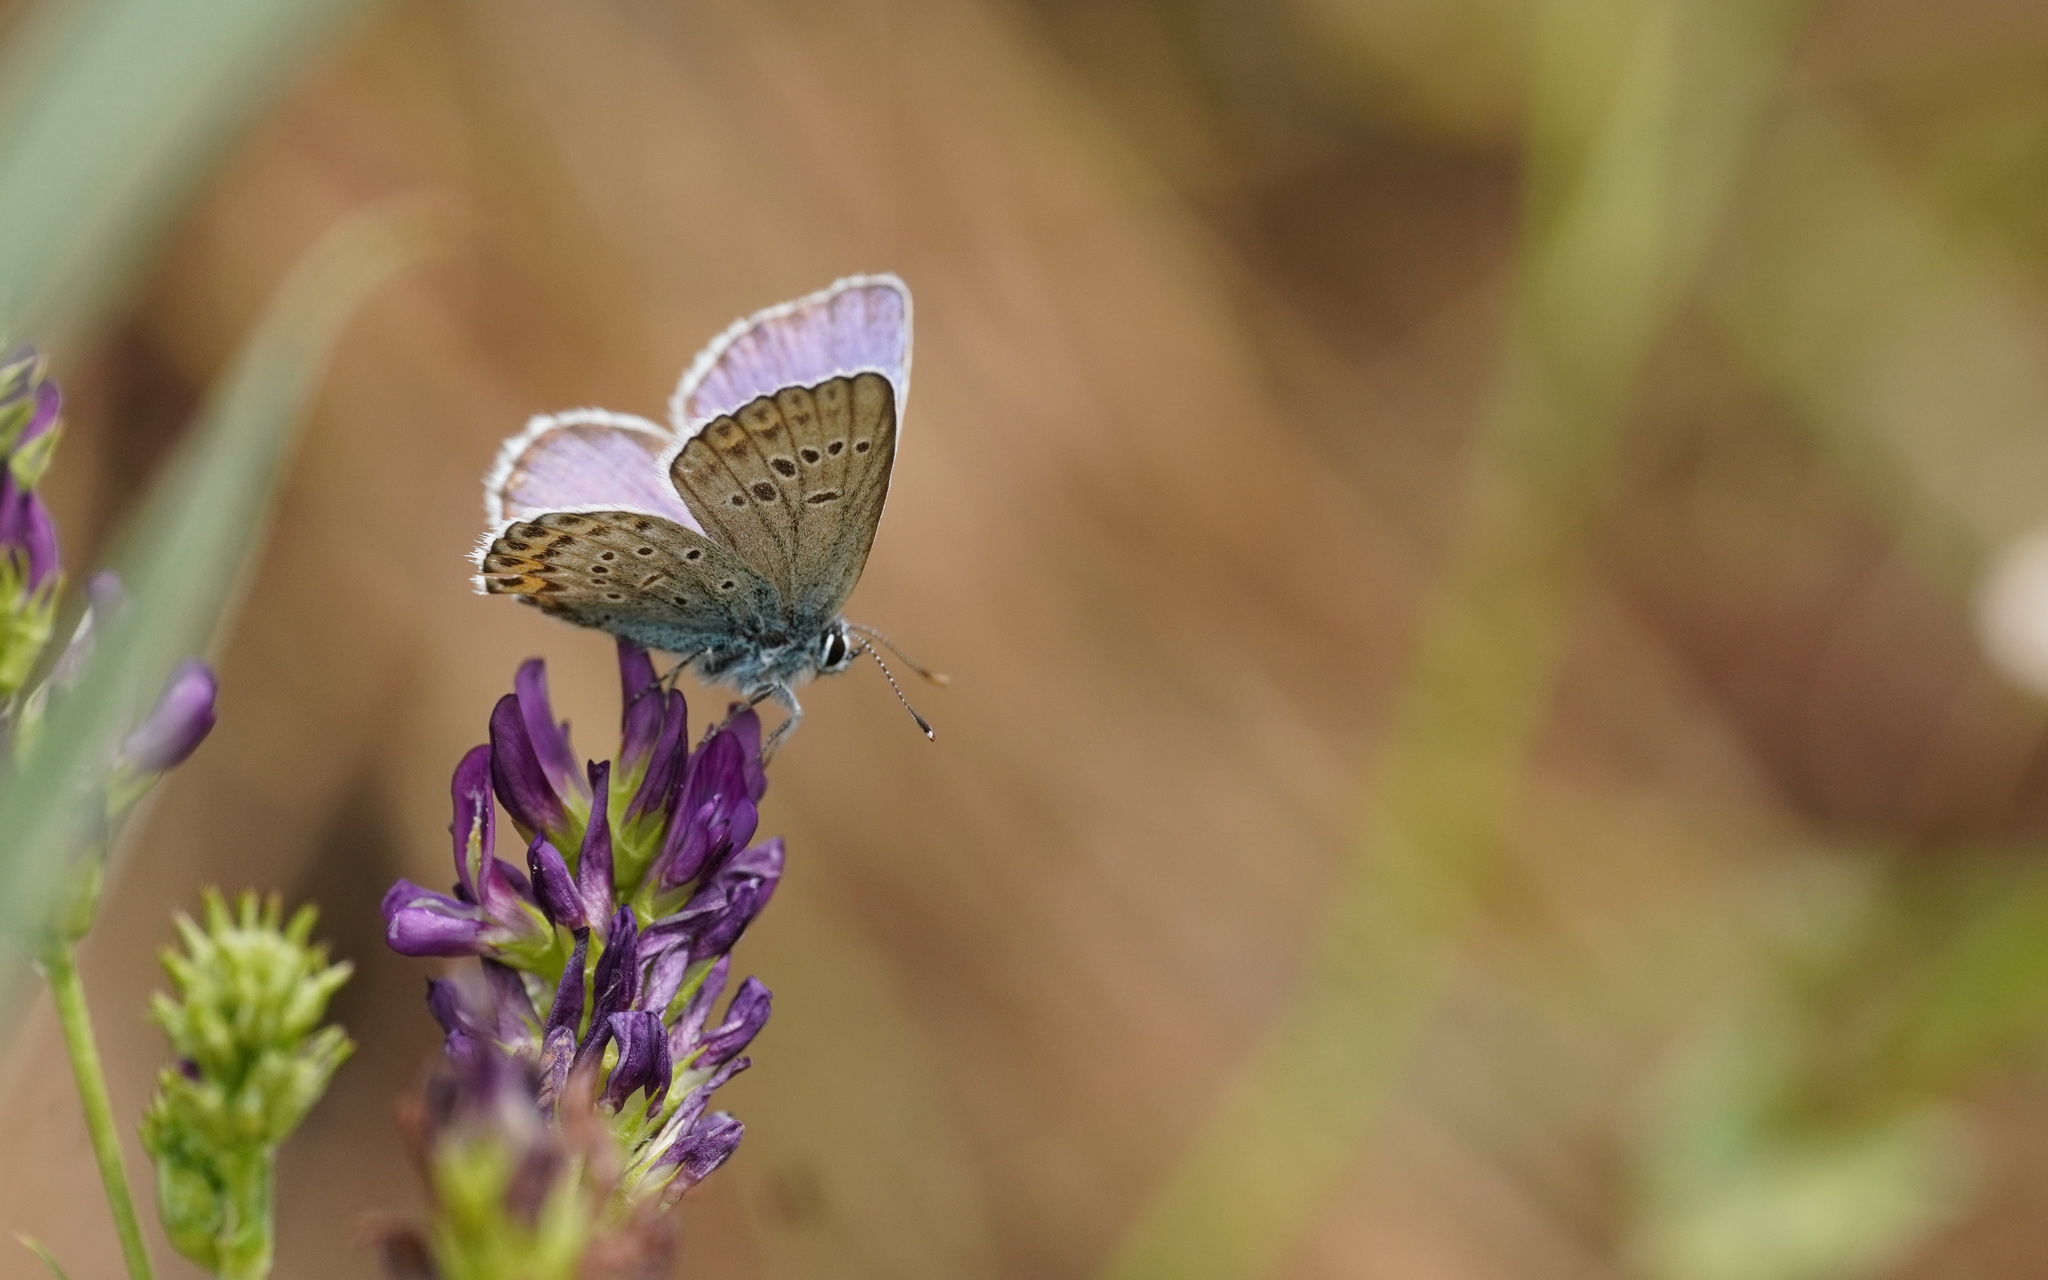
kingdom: Animalia
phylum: Arthropoda
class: Insecta
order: Lepidoptera
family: Lycaenidae
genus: Lycaeides
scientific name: Lycaeides idas
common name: Northern blue
